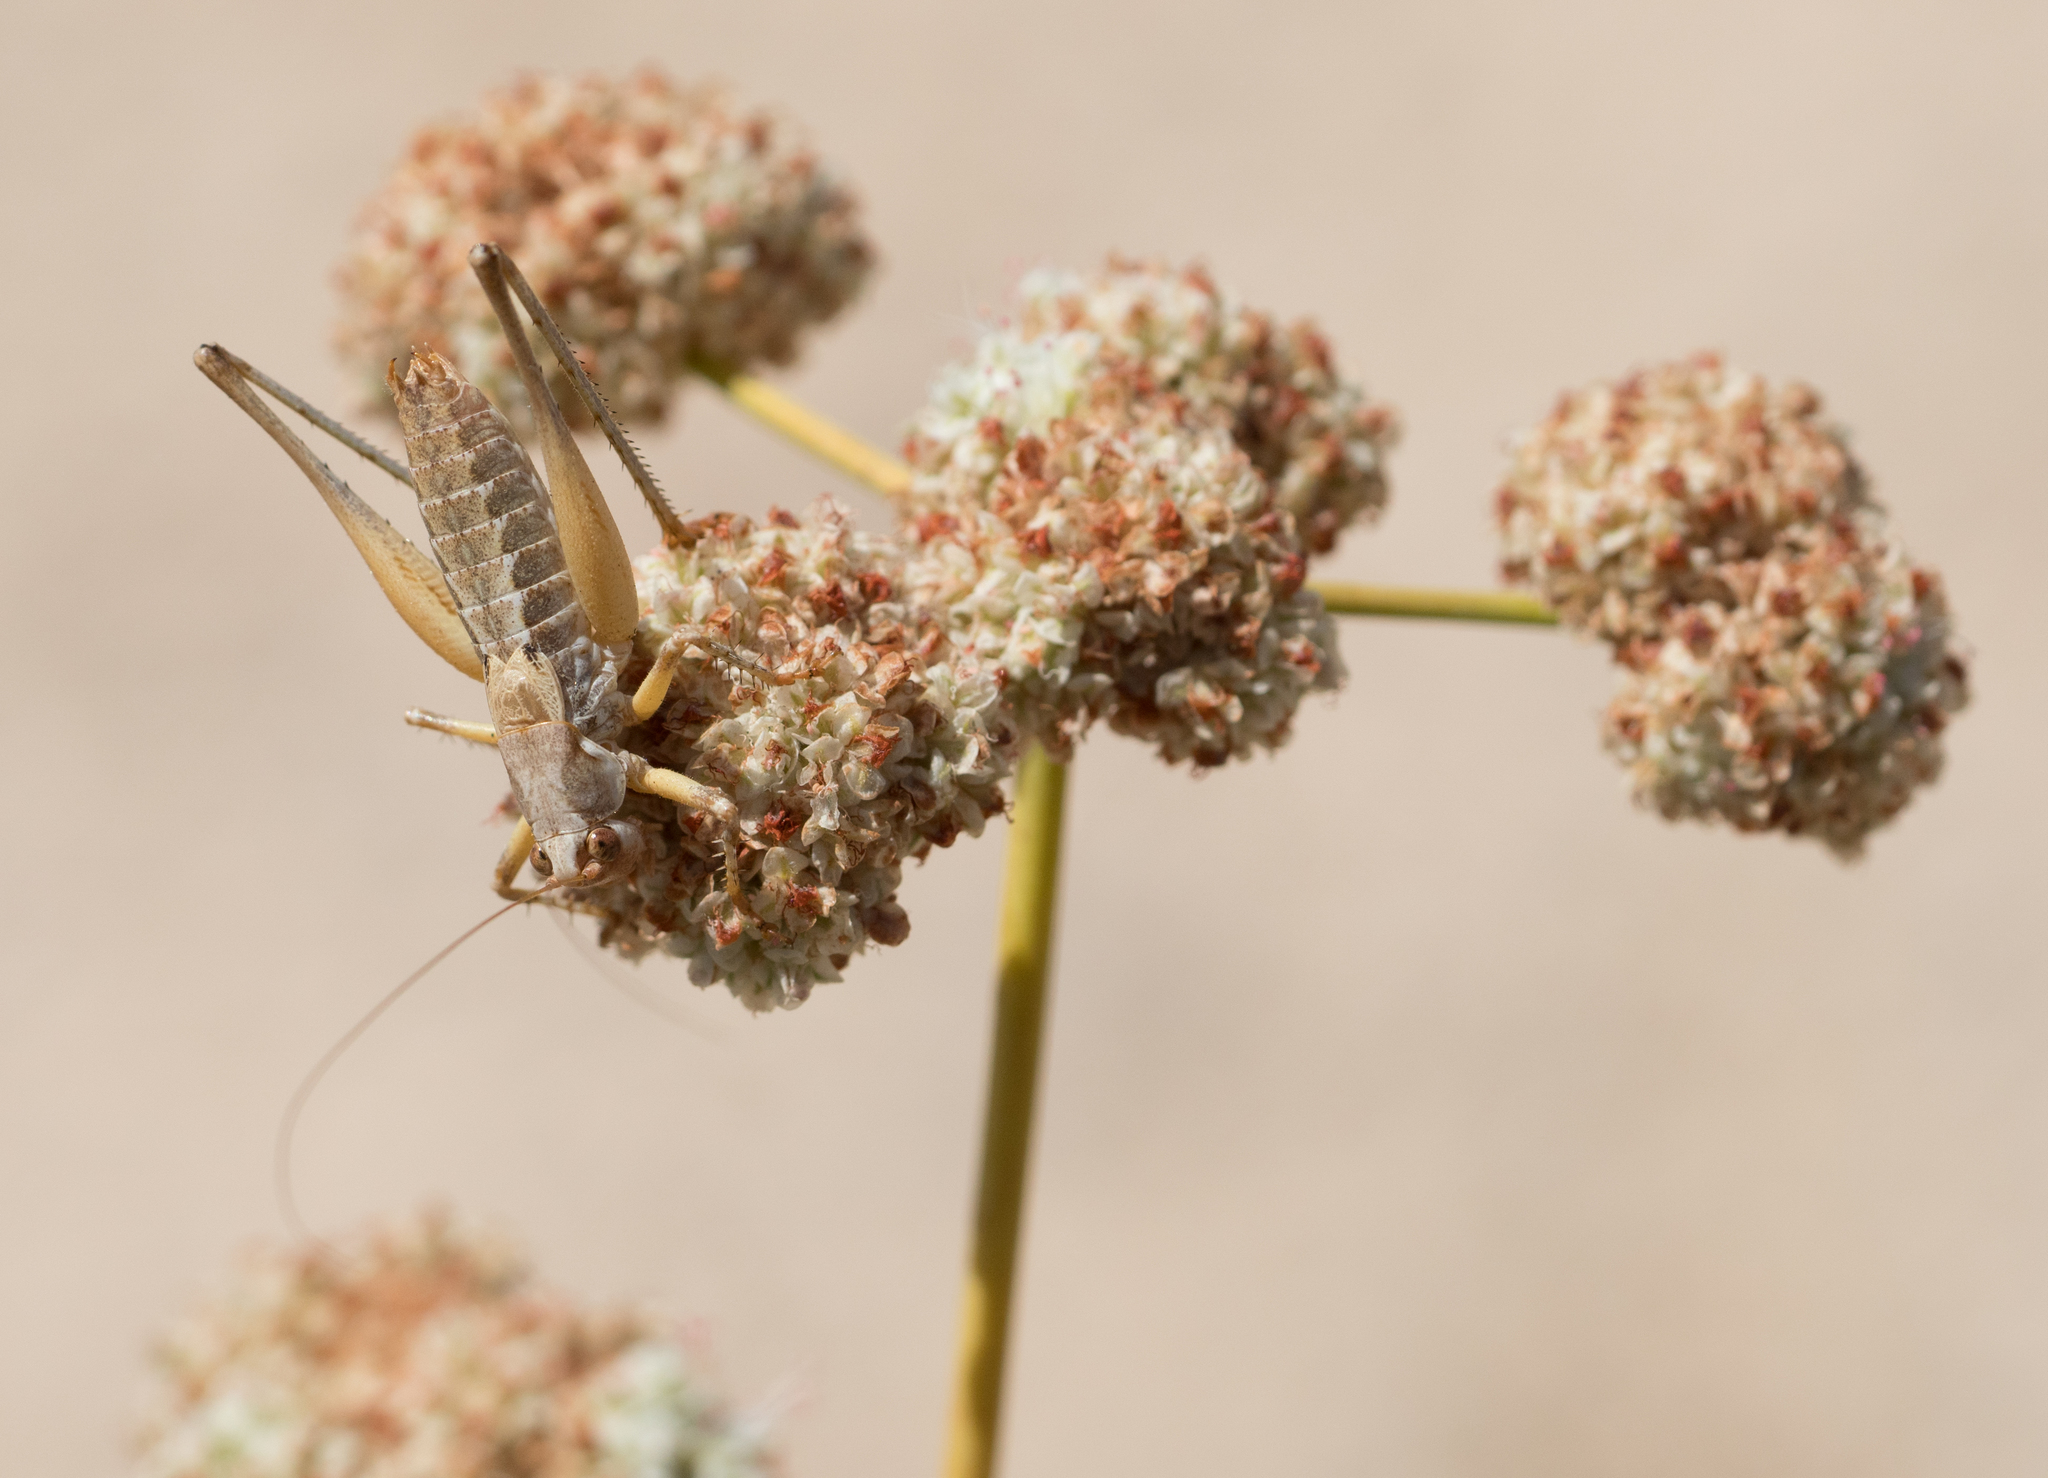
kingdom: Animalia
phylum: Arthropoda
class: Insecta
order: Orthoptera
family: Tettigoniidae
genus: Idiostatus
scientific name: Idiostatus aequalis
